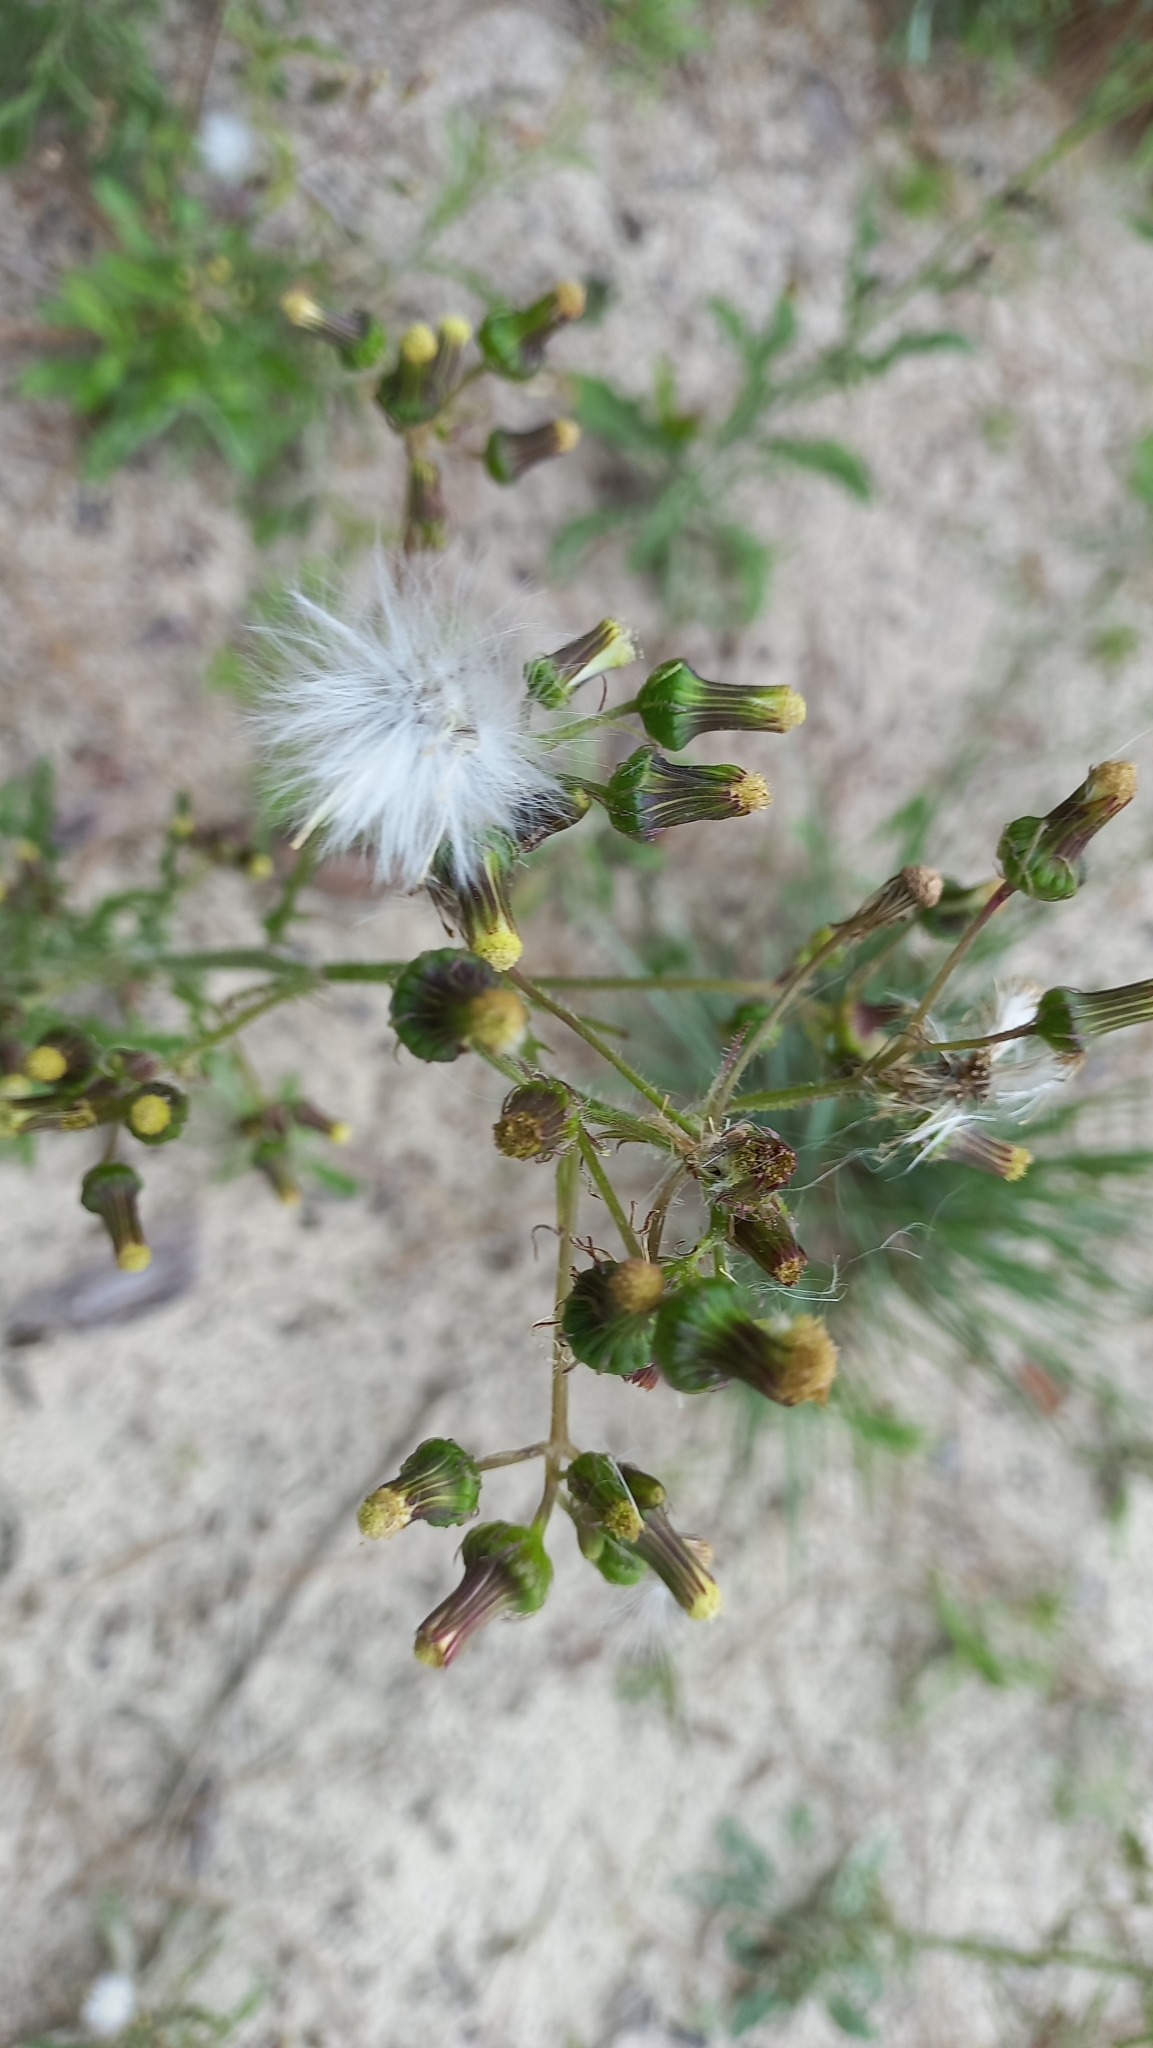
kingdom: Plantae
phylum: Tracheophyta
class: Magnoliopsida
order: Asterales
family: Asteraceae
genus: Erechtites
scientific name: Erechtites hieraciifolius
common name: American burnweed
